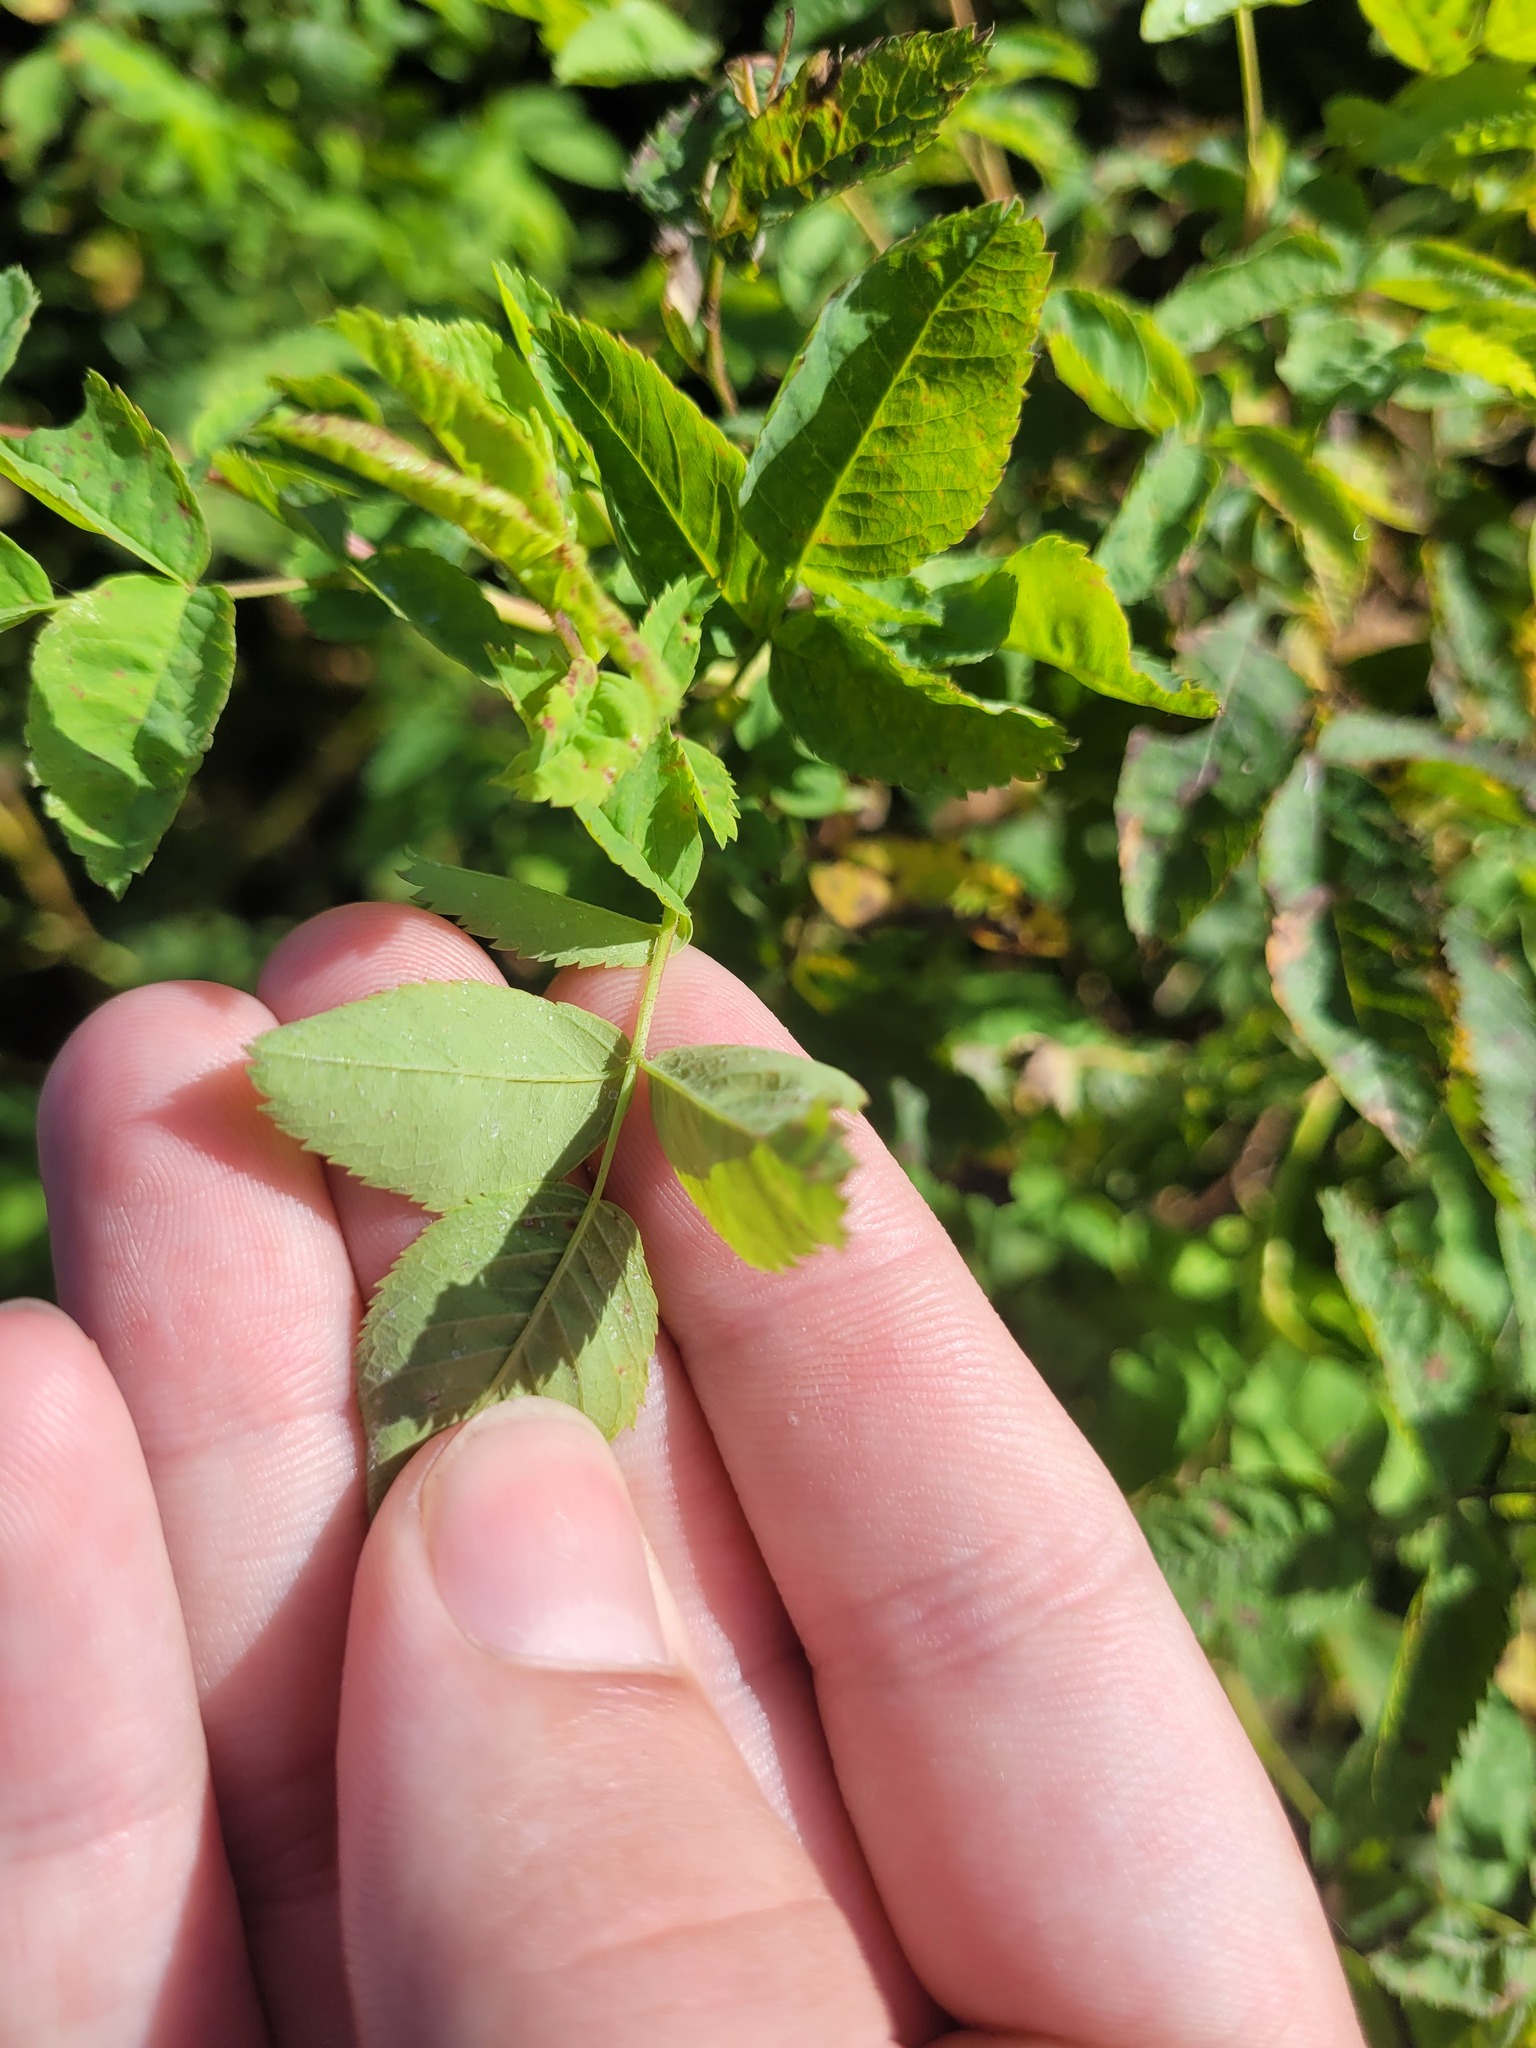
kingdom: Plantae
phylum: Tracheophyta
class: Magnoliopsida
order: Rosales
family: Rosaceae
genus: Rosa
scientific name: Rosa glabrifolia
